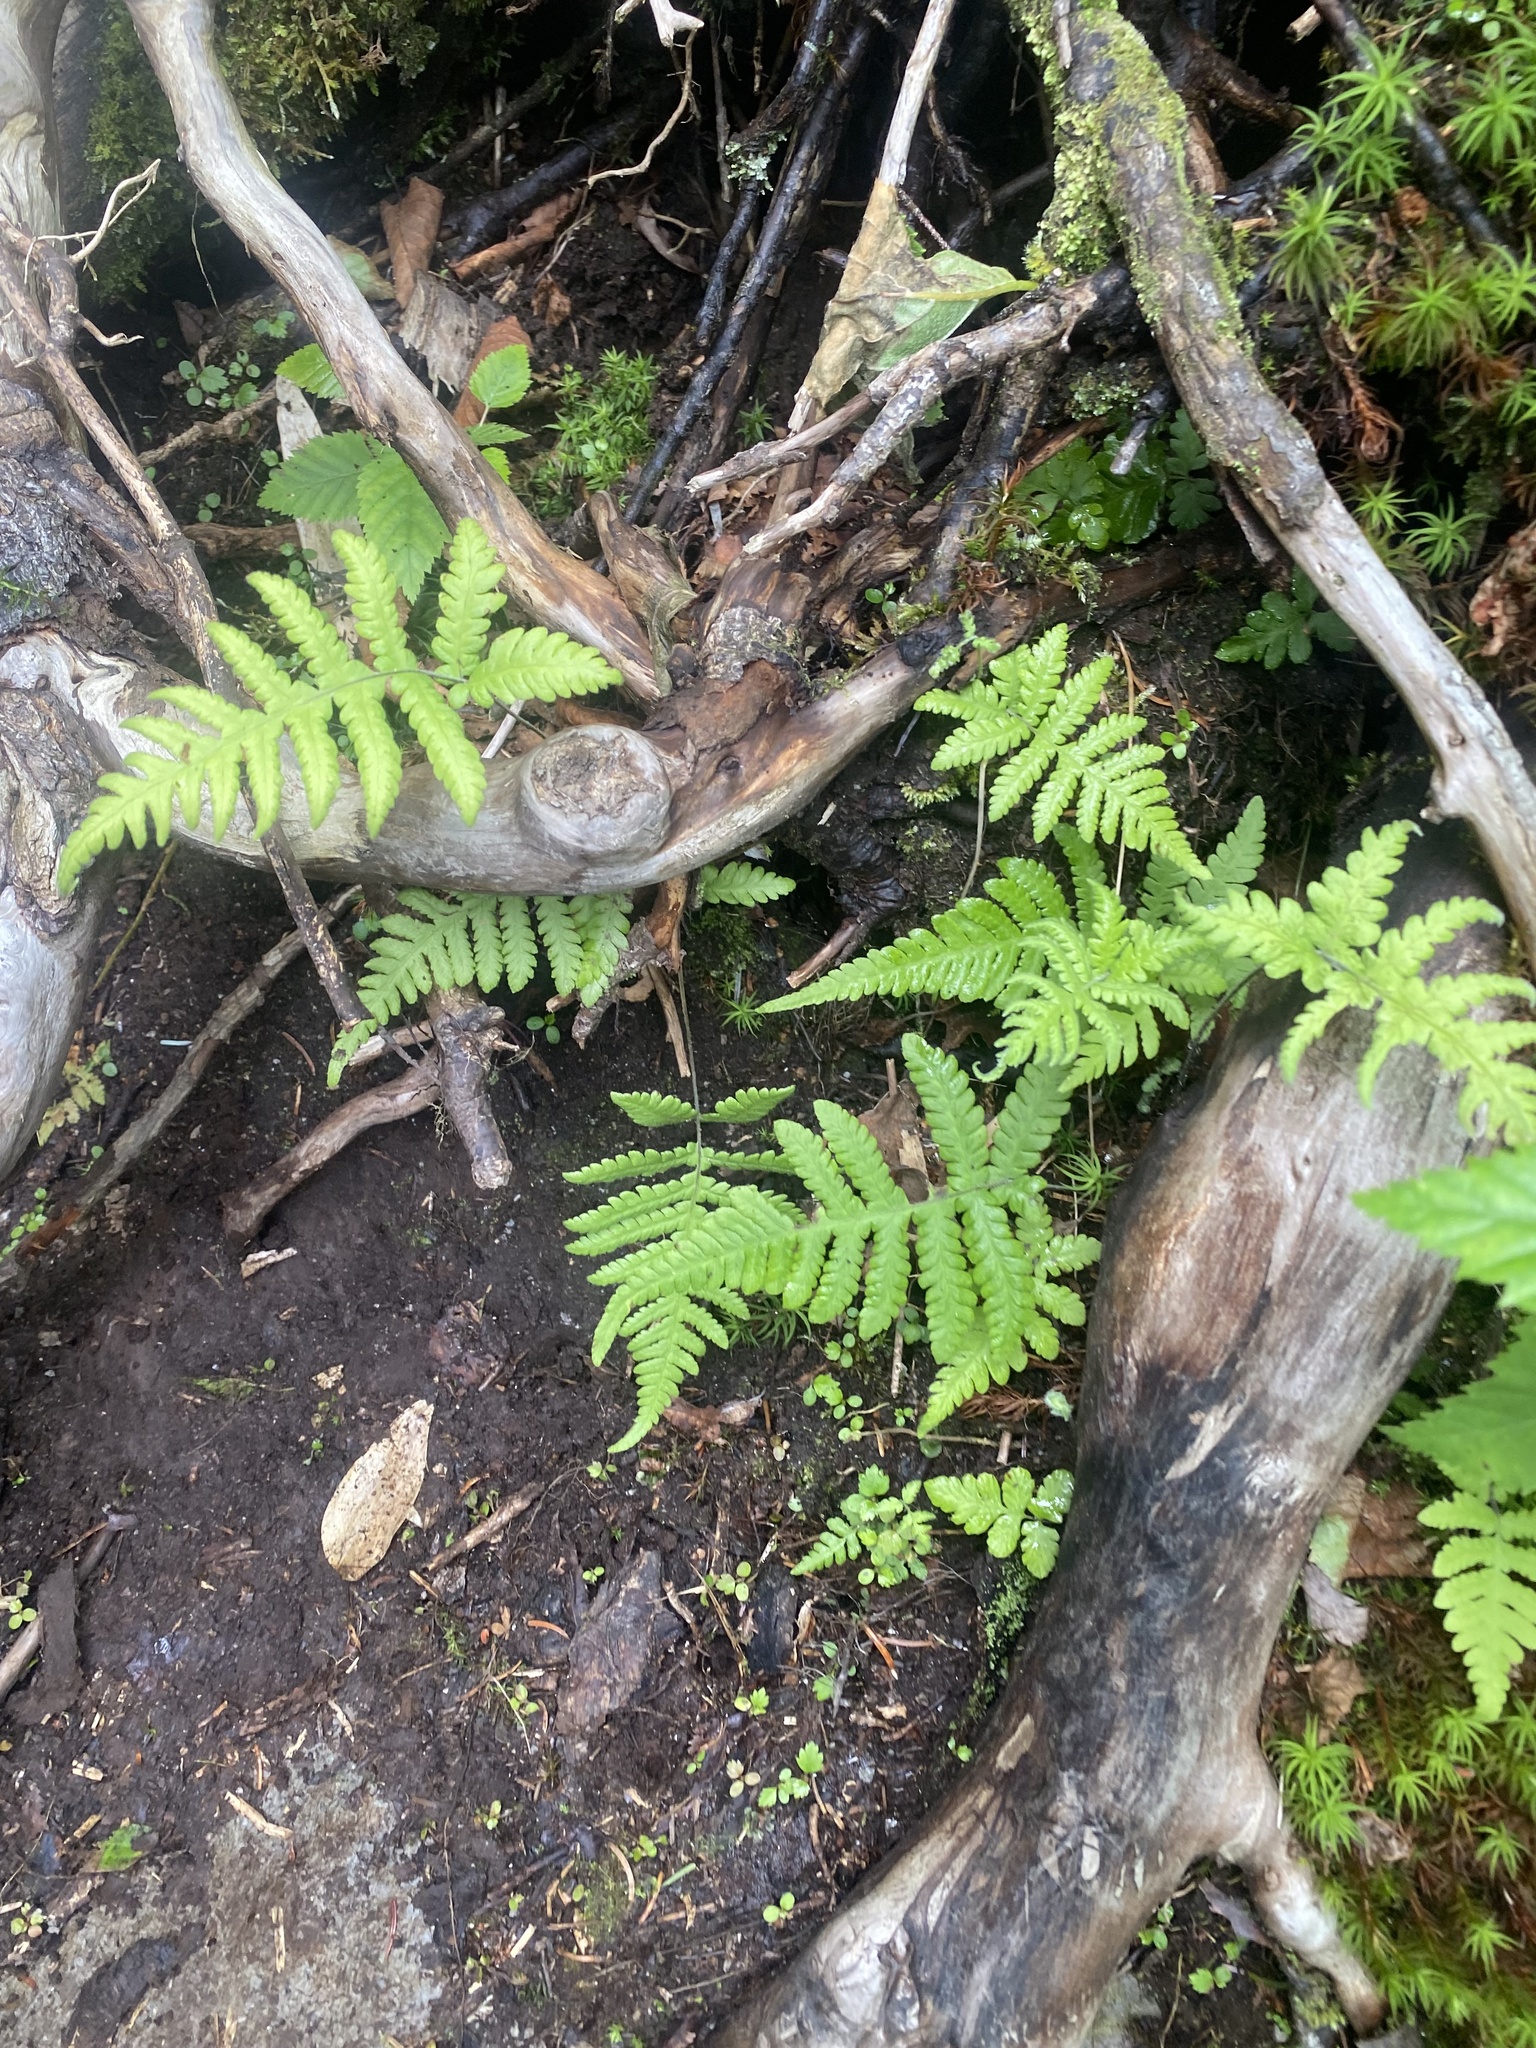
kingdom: Plantae
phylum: Tracheophyta
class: Polypodiopsida
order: Polypodiales
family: Thelypteridaceae
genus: Phegopteris
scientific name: Phegopteris connectilis
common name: Beech fern
